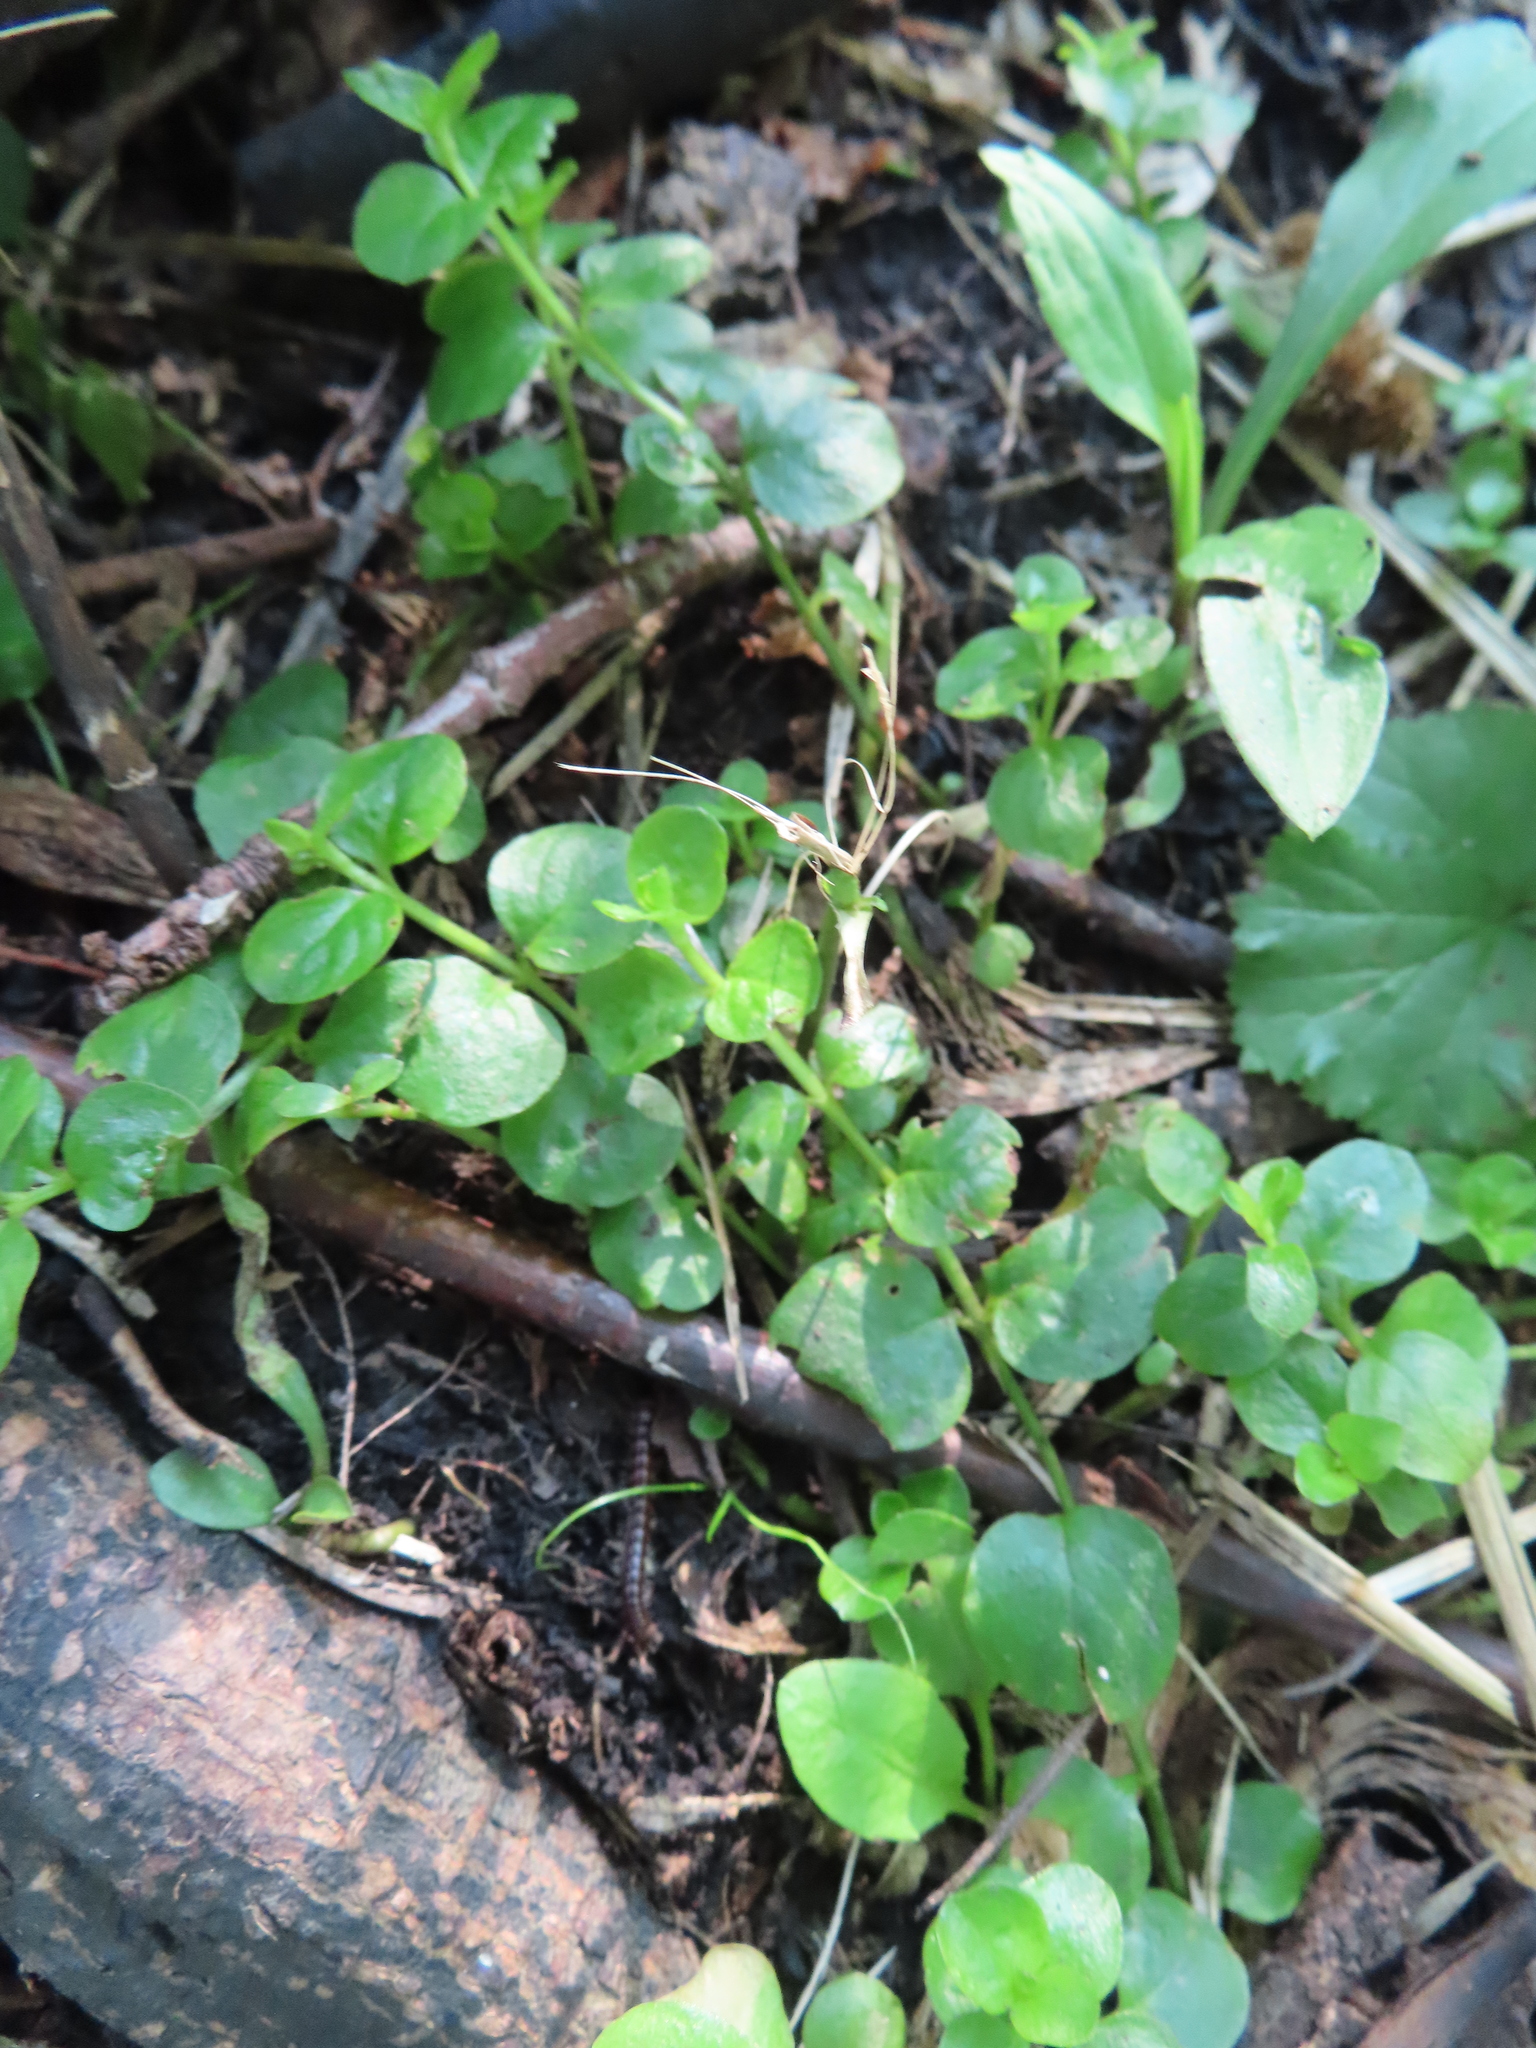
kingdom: Plantae
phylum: Tracheophyta
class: Magnoliopsida
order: Ericales
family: Primulaceae
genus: Lysimachia
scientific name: Lysimachia nummularia
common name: Moneywort
